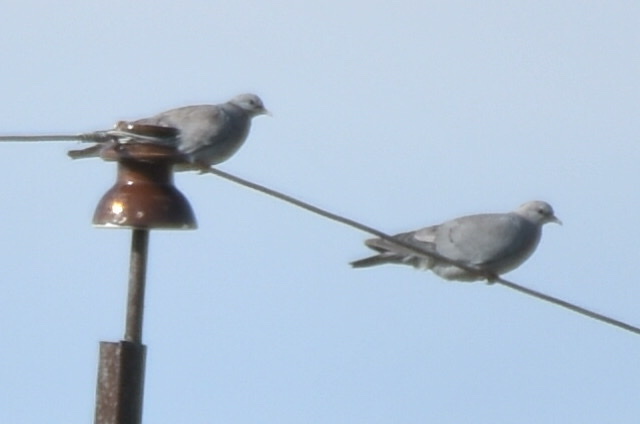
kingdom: Animalia
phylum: Chordata
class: Aves
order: Columbiformes
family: Columbidae
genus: Columba
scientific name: Columba oenas
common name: Stock dove
